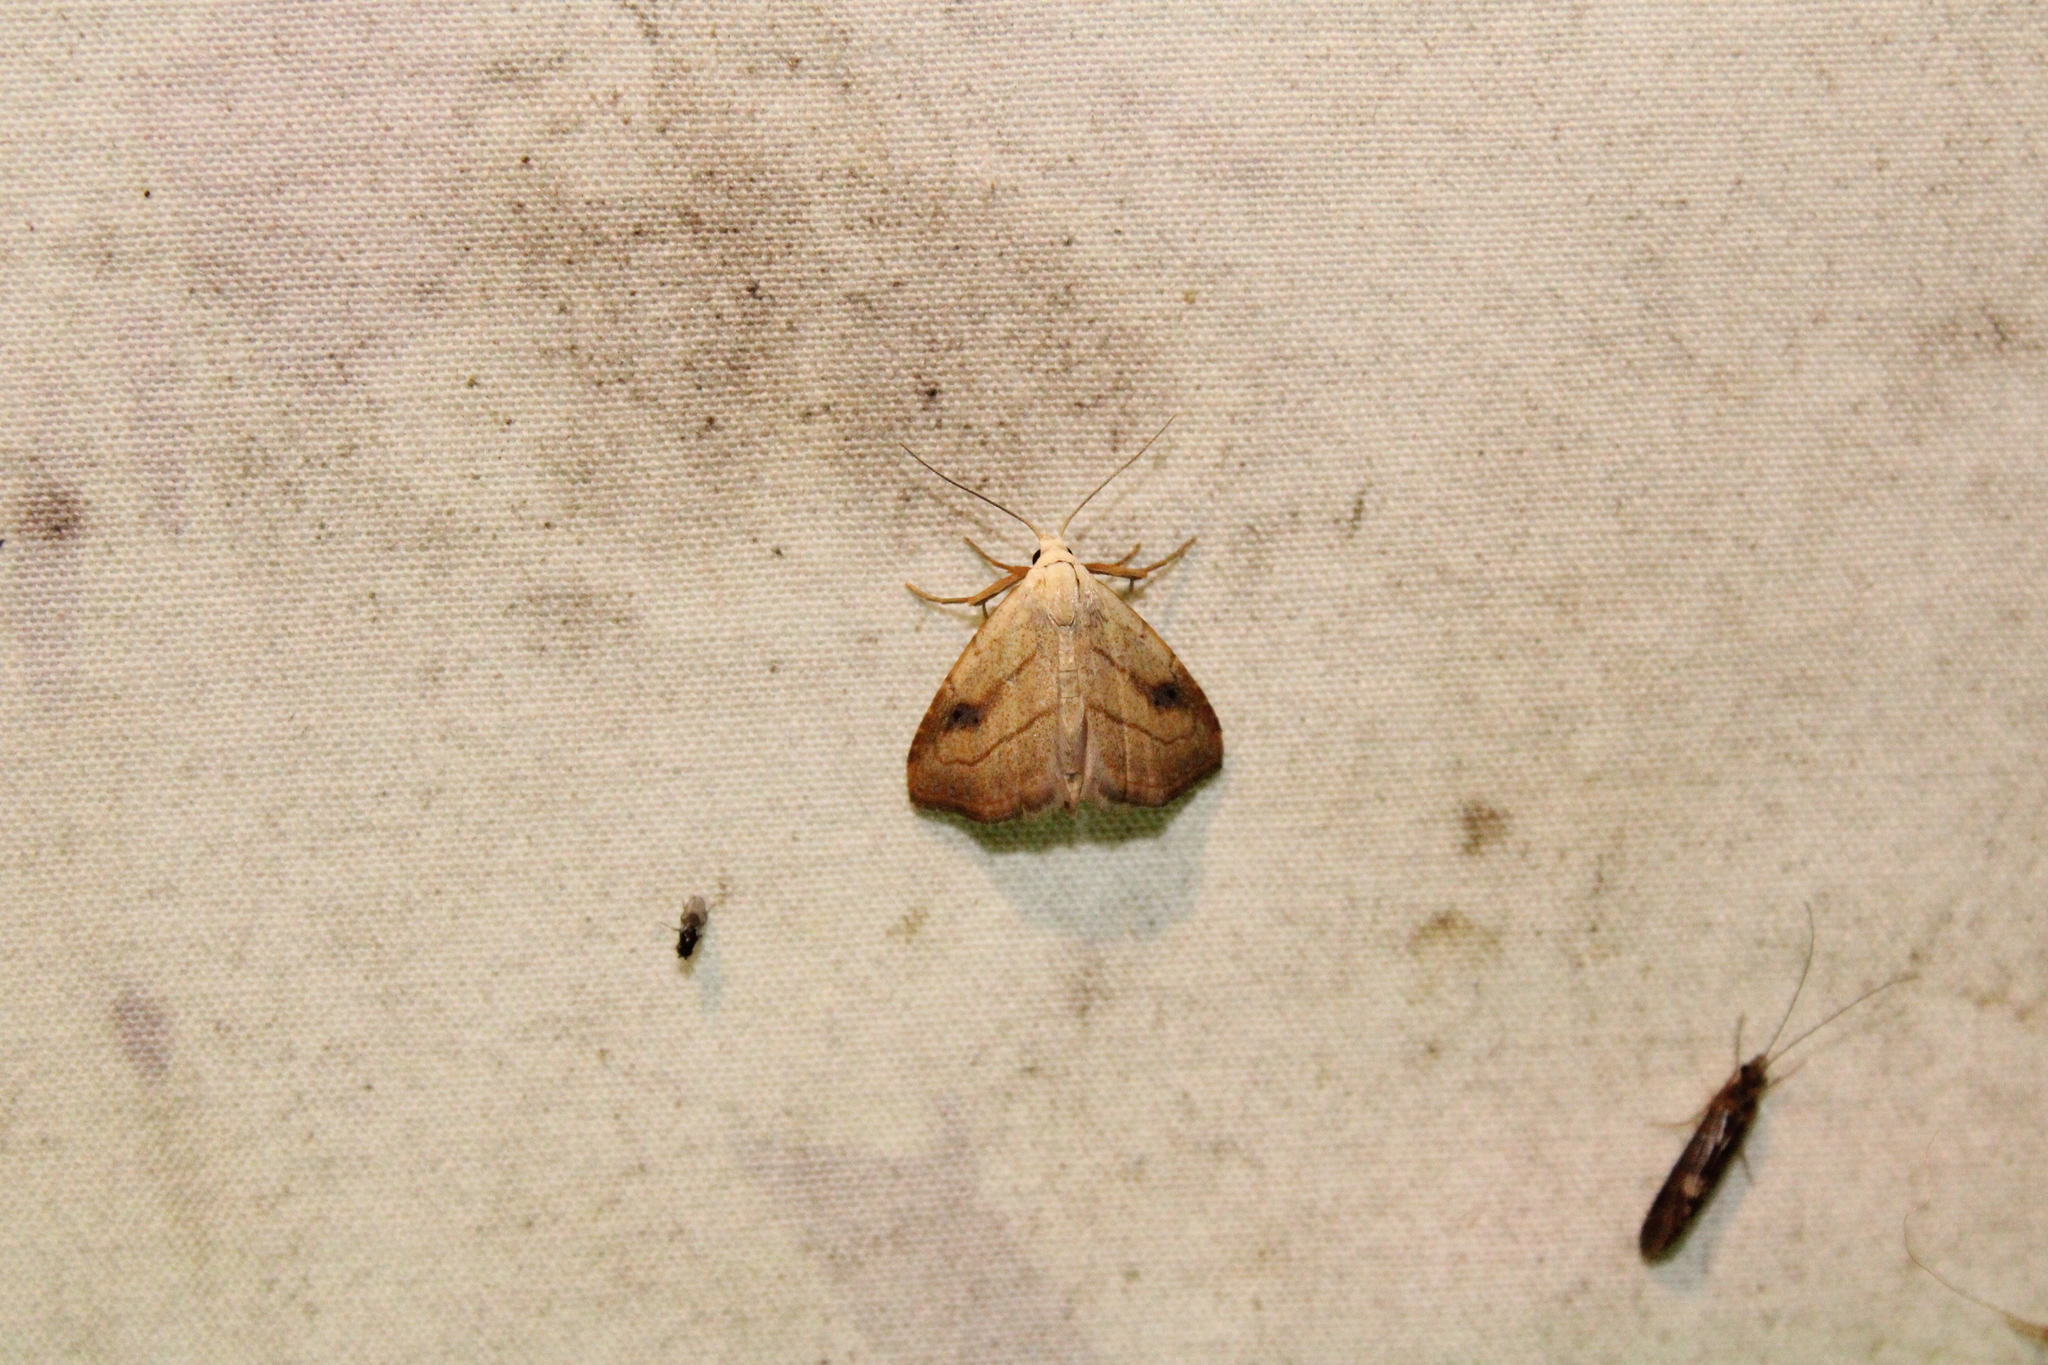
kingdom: Animalia
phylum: Arthropoda
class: Insecta
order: Lepidoptera
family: Erebidae
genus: Rivula
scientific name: Rivula propinqualis
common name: Spotted grass moth
